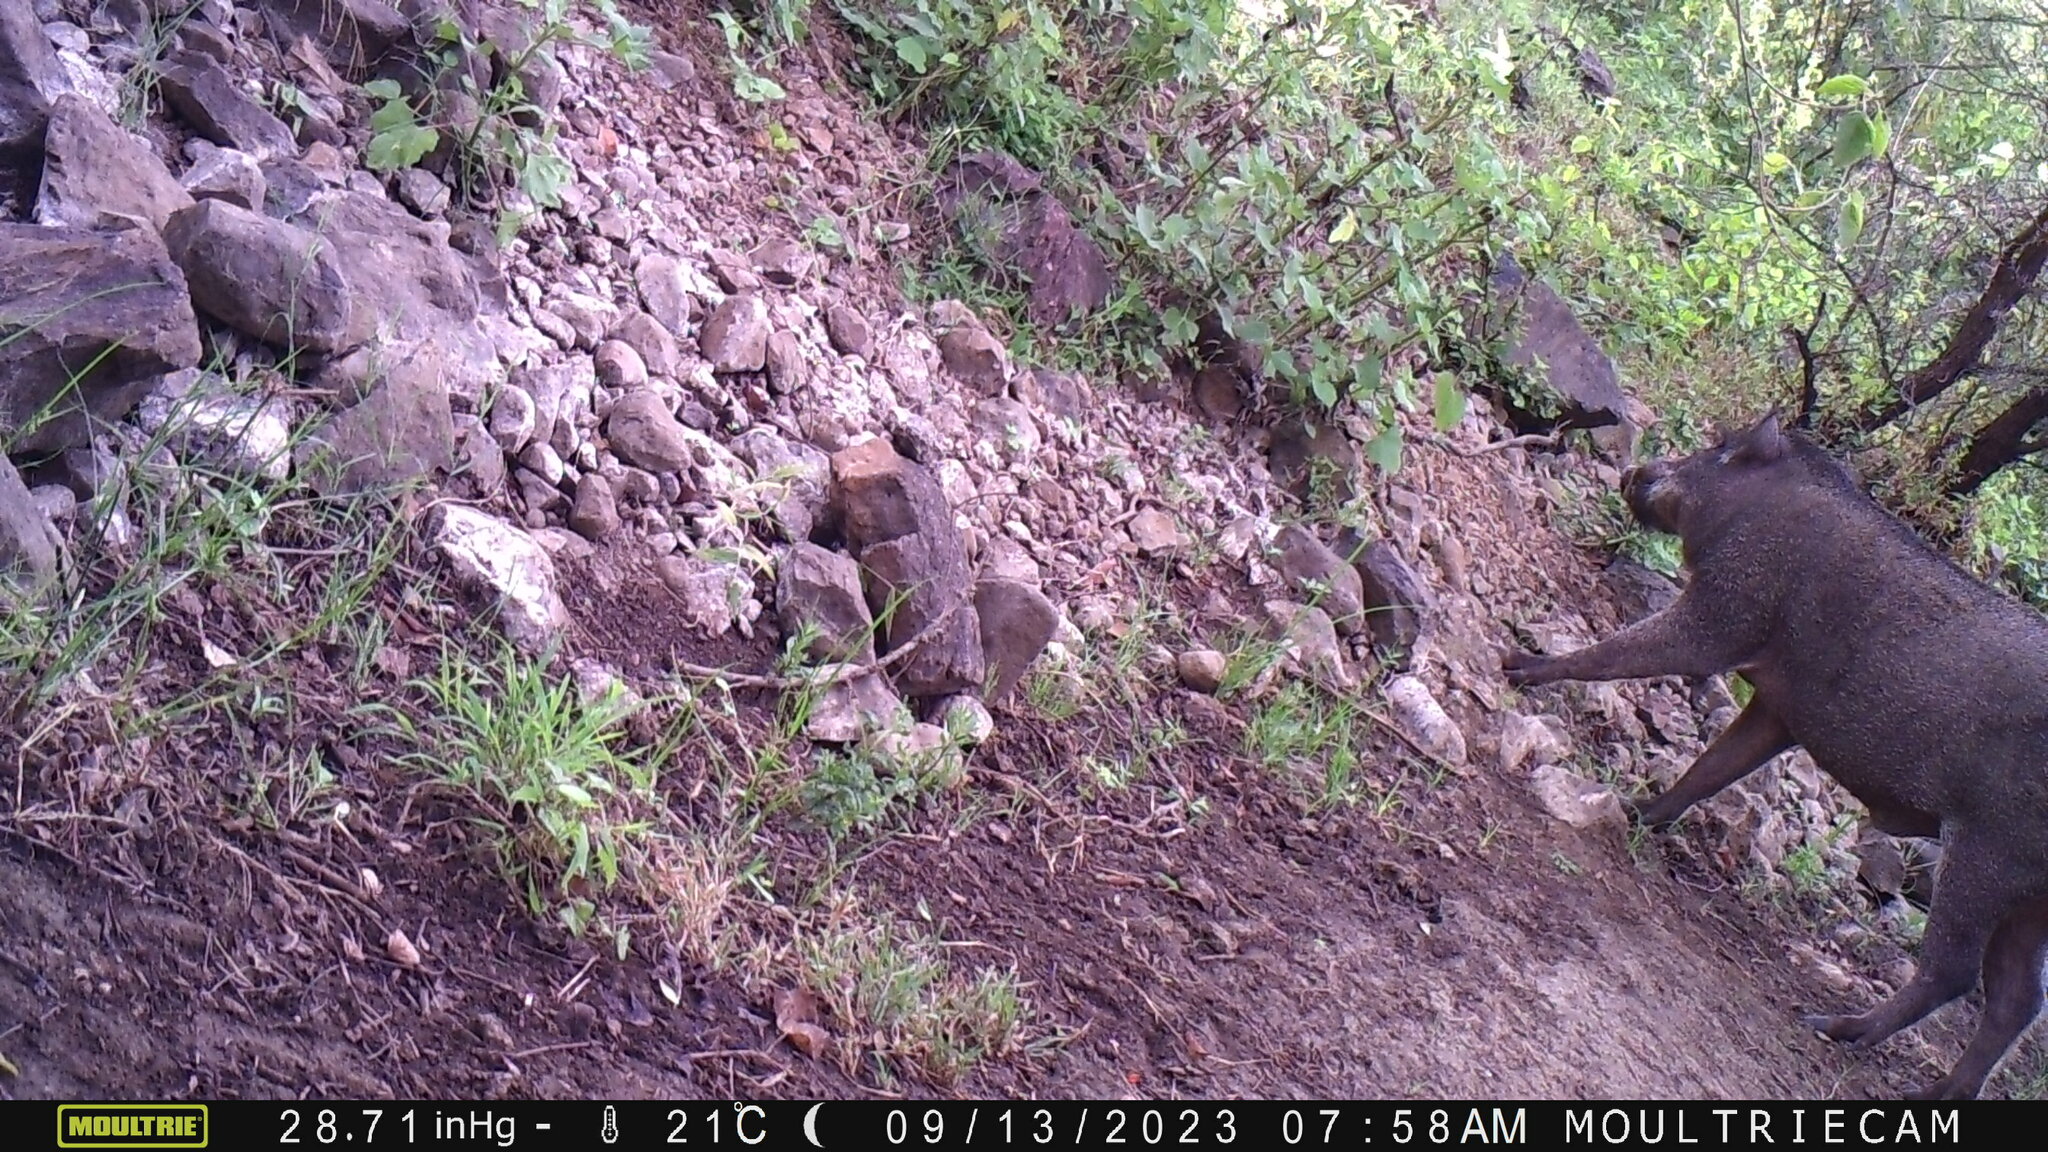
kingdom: Animalia
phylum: Chordata
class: Mammalia
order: Artiodactyla
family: Suidae
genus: Sus
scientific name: Sus scrofa
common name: Wild boar
